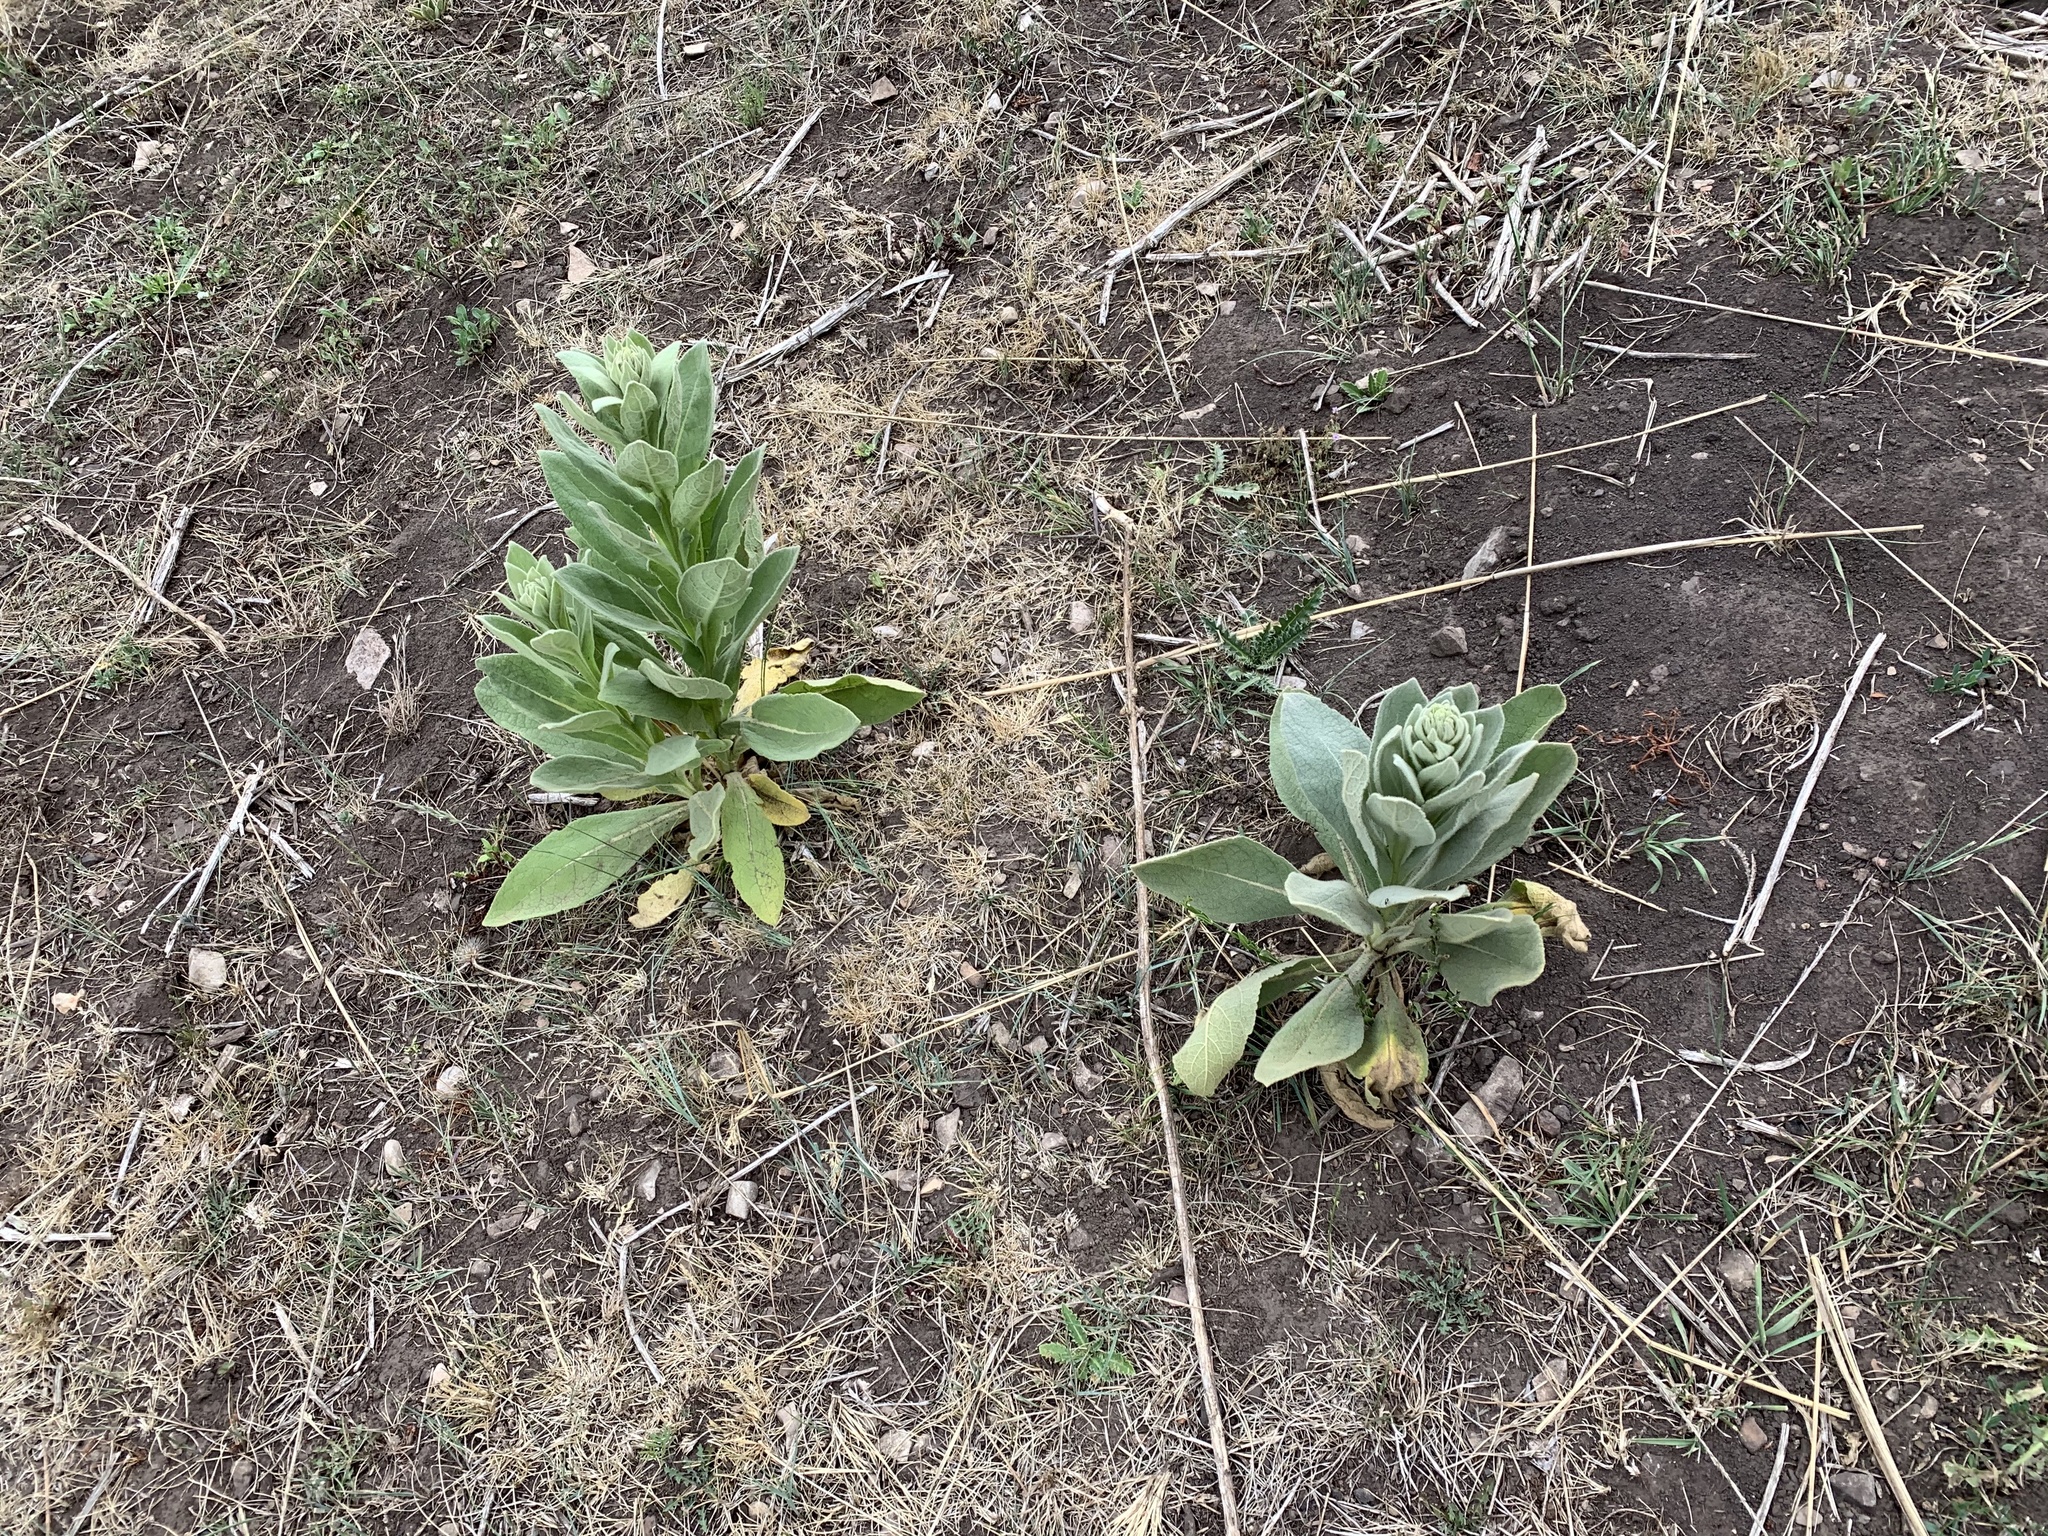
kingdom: Plantae
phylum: Tracheophyta
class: Magnoliopsida
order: Lamiales
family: Scrophulariaceae
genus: Verbascum
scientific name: Verbascum thapsus
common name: Common mullein
